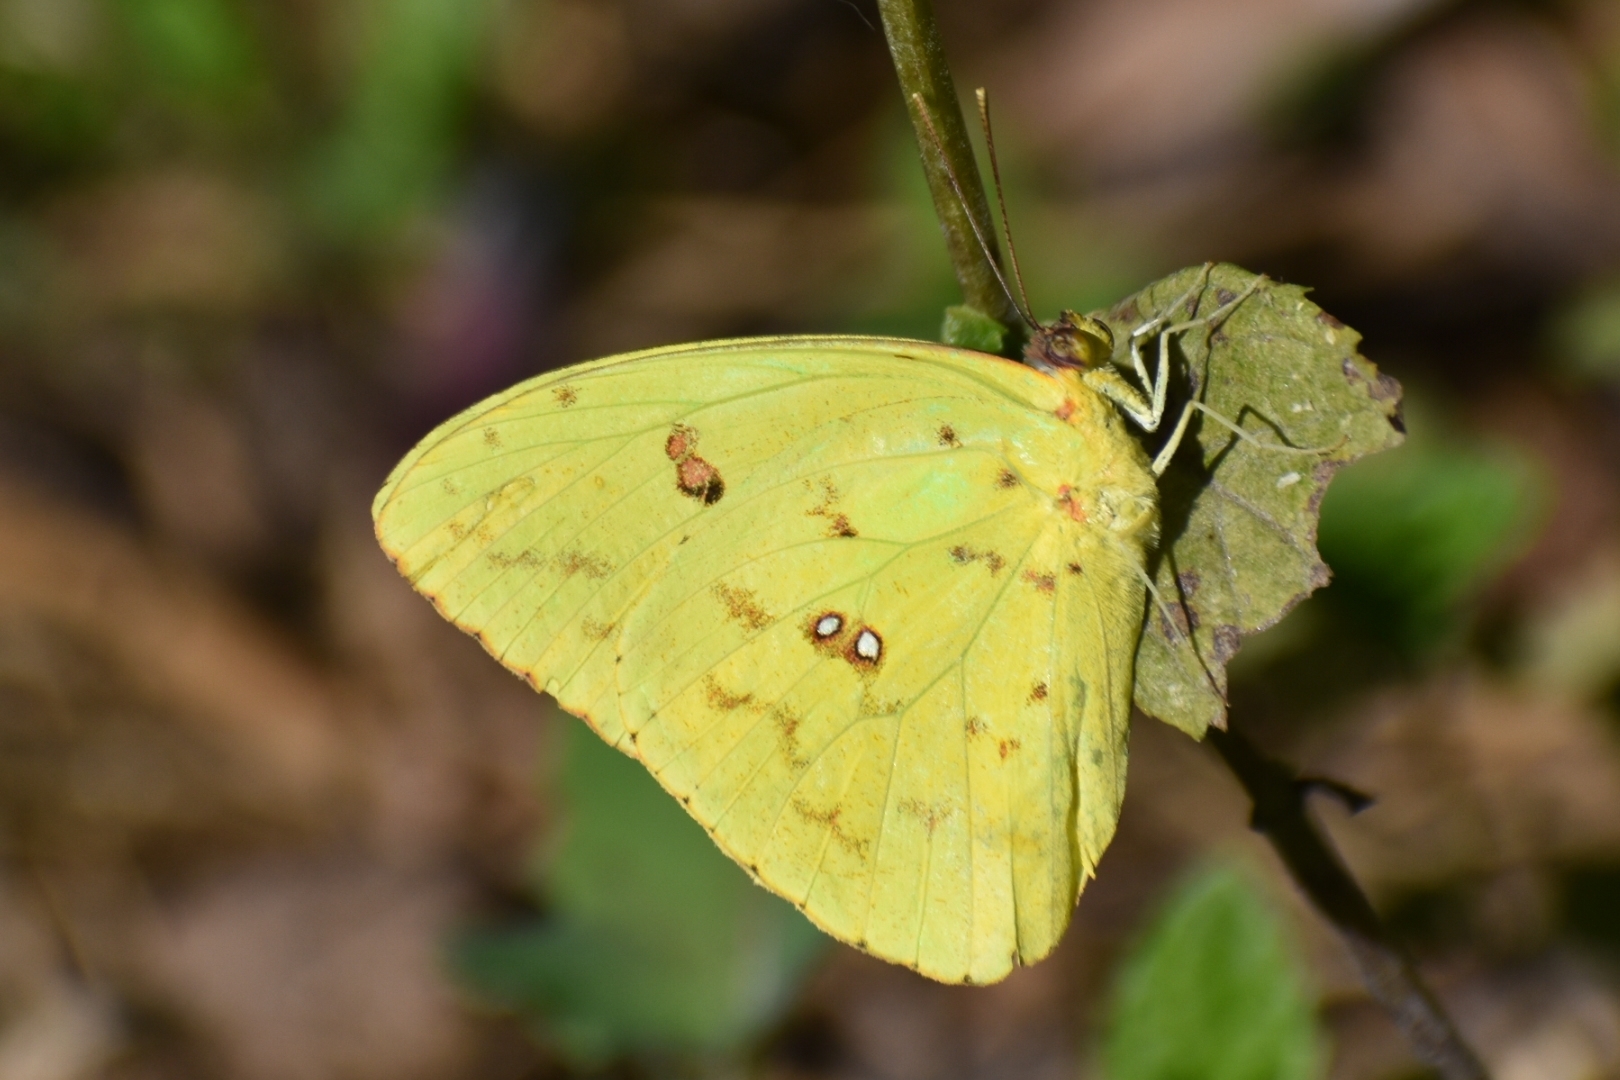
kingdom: Animalia
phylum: Arthropoda
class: Insecta
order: Lepidoptera
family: Pieridae
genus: Phoebis
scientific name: Phoebis sennae
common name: Cloudless sulphur
